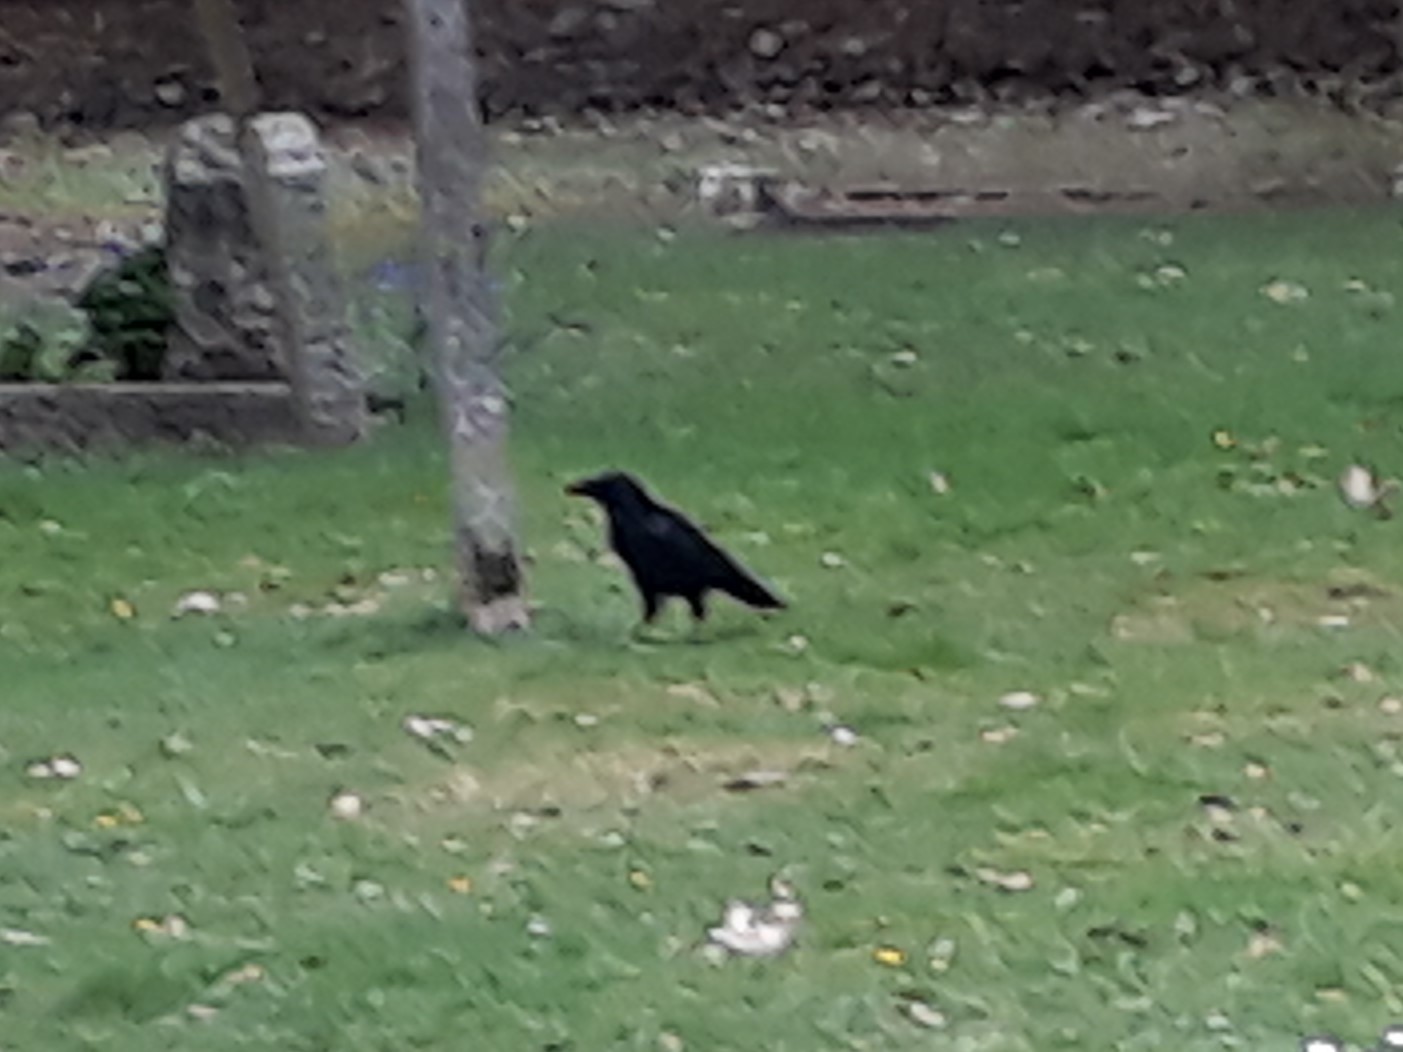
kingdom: Animalia
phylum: Chordata
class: Aves
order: Passeriformes
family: Corvidae
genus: Corvus
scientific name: Corvus corone
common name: Carrion crow
